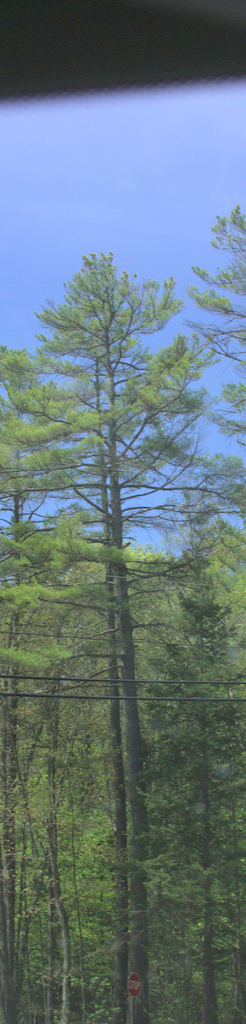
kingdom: Plantae
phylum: Tracheophyta
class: Pinopsida
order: Pinales
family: Pinaceae
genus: Pinus
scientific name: Pinus strobus
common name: Weymouth pine
